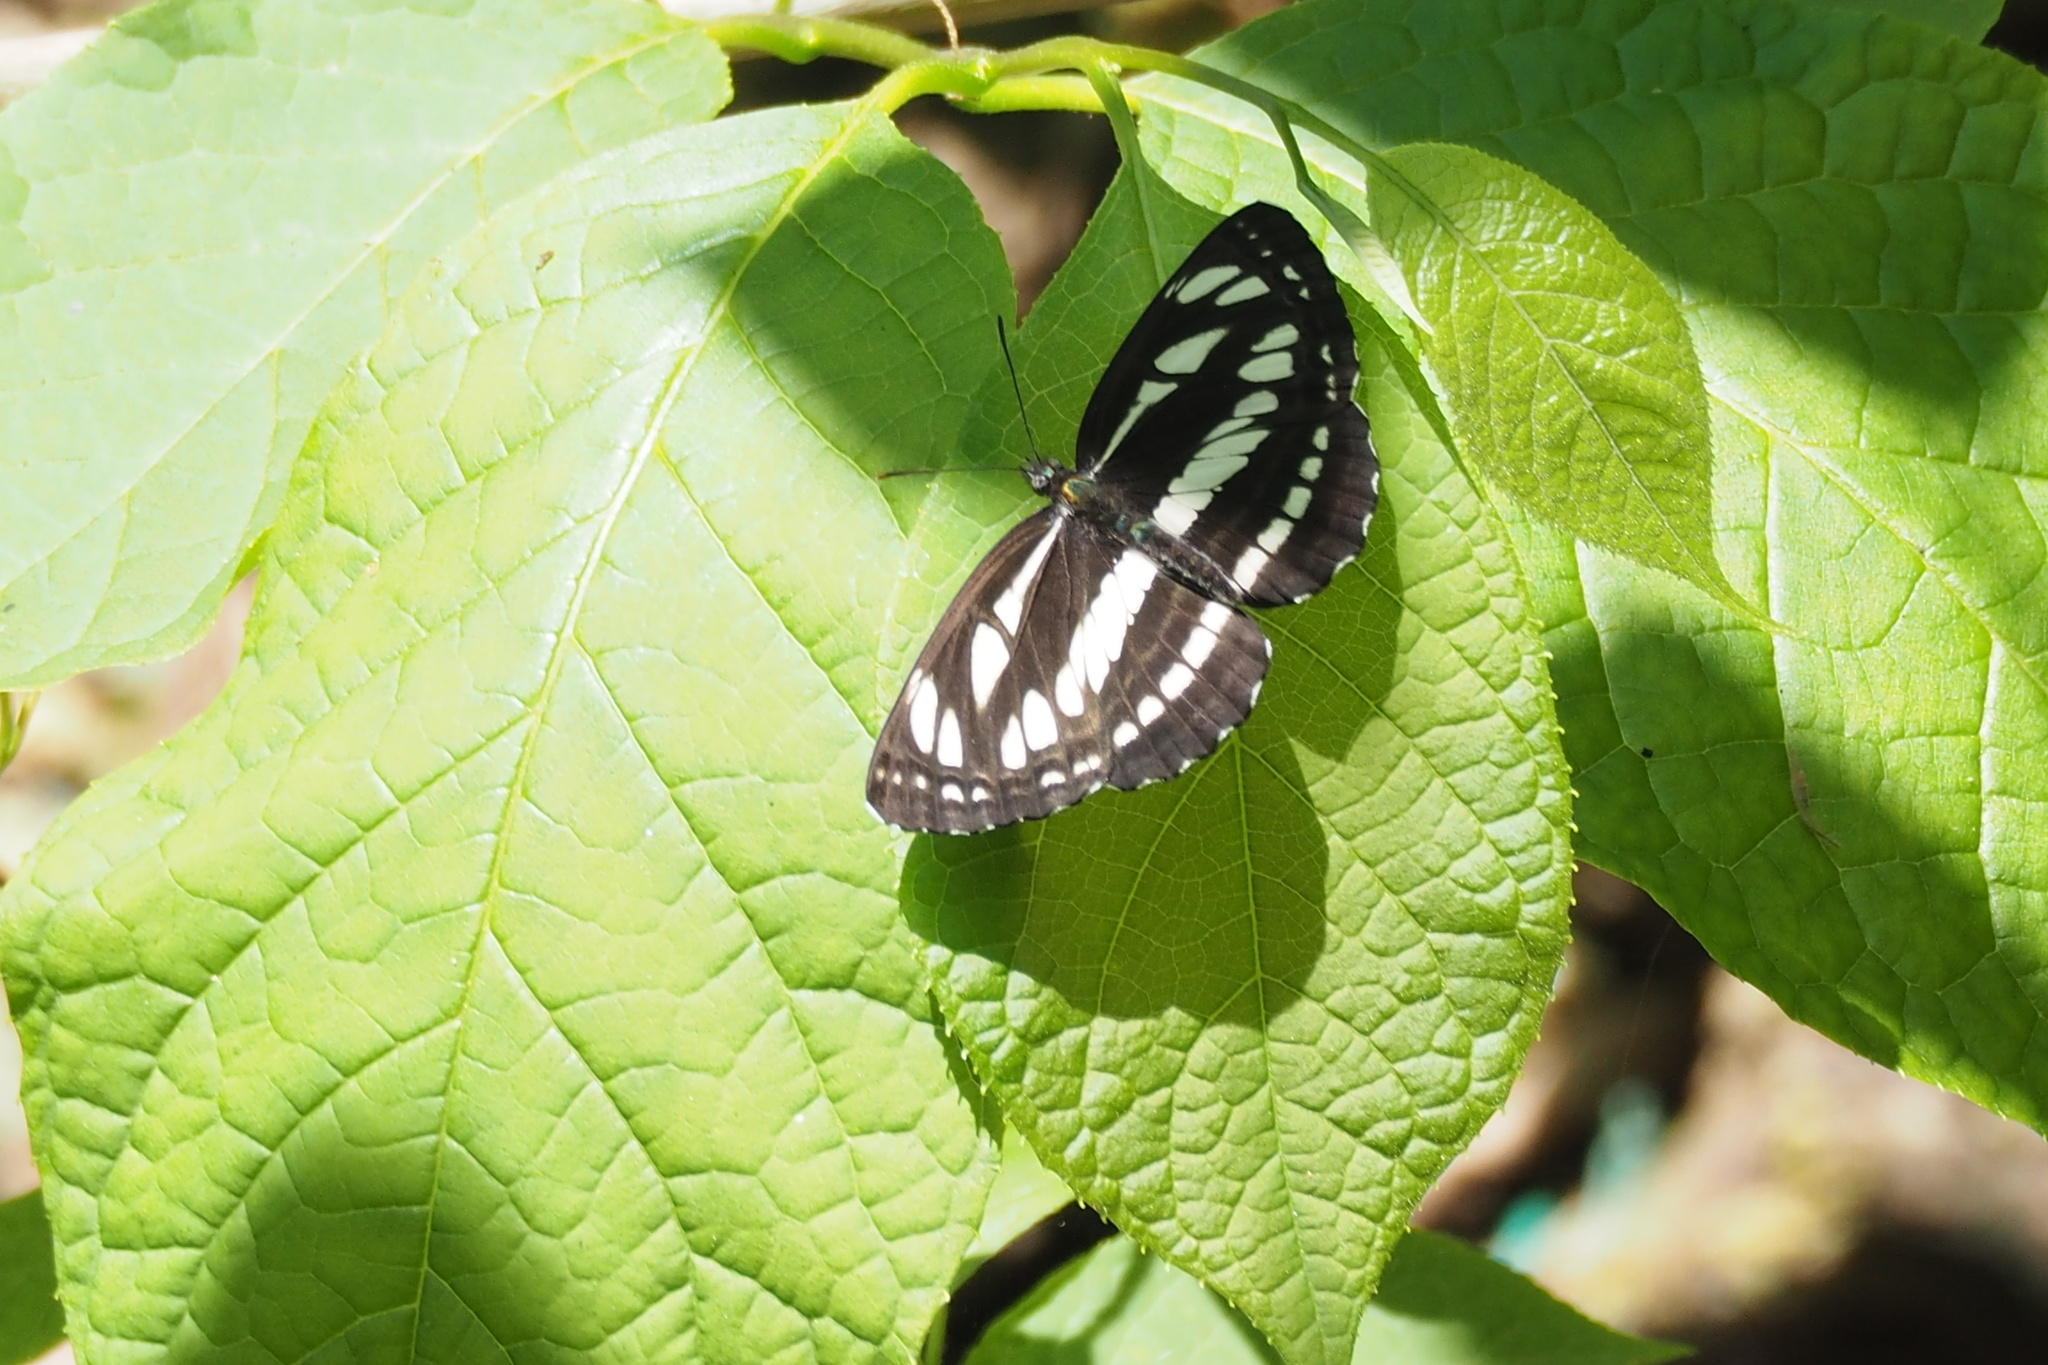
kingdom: Animalia
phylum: Arthropoda
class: Insecta
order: Lepidoptera
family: Nymphalidae
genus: Neptis
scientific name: Neptis sappho
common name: Common glider
